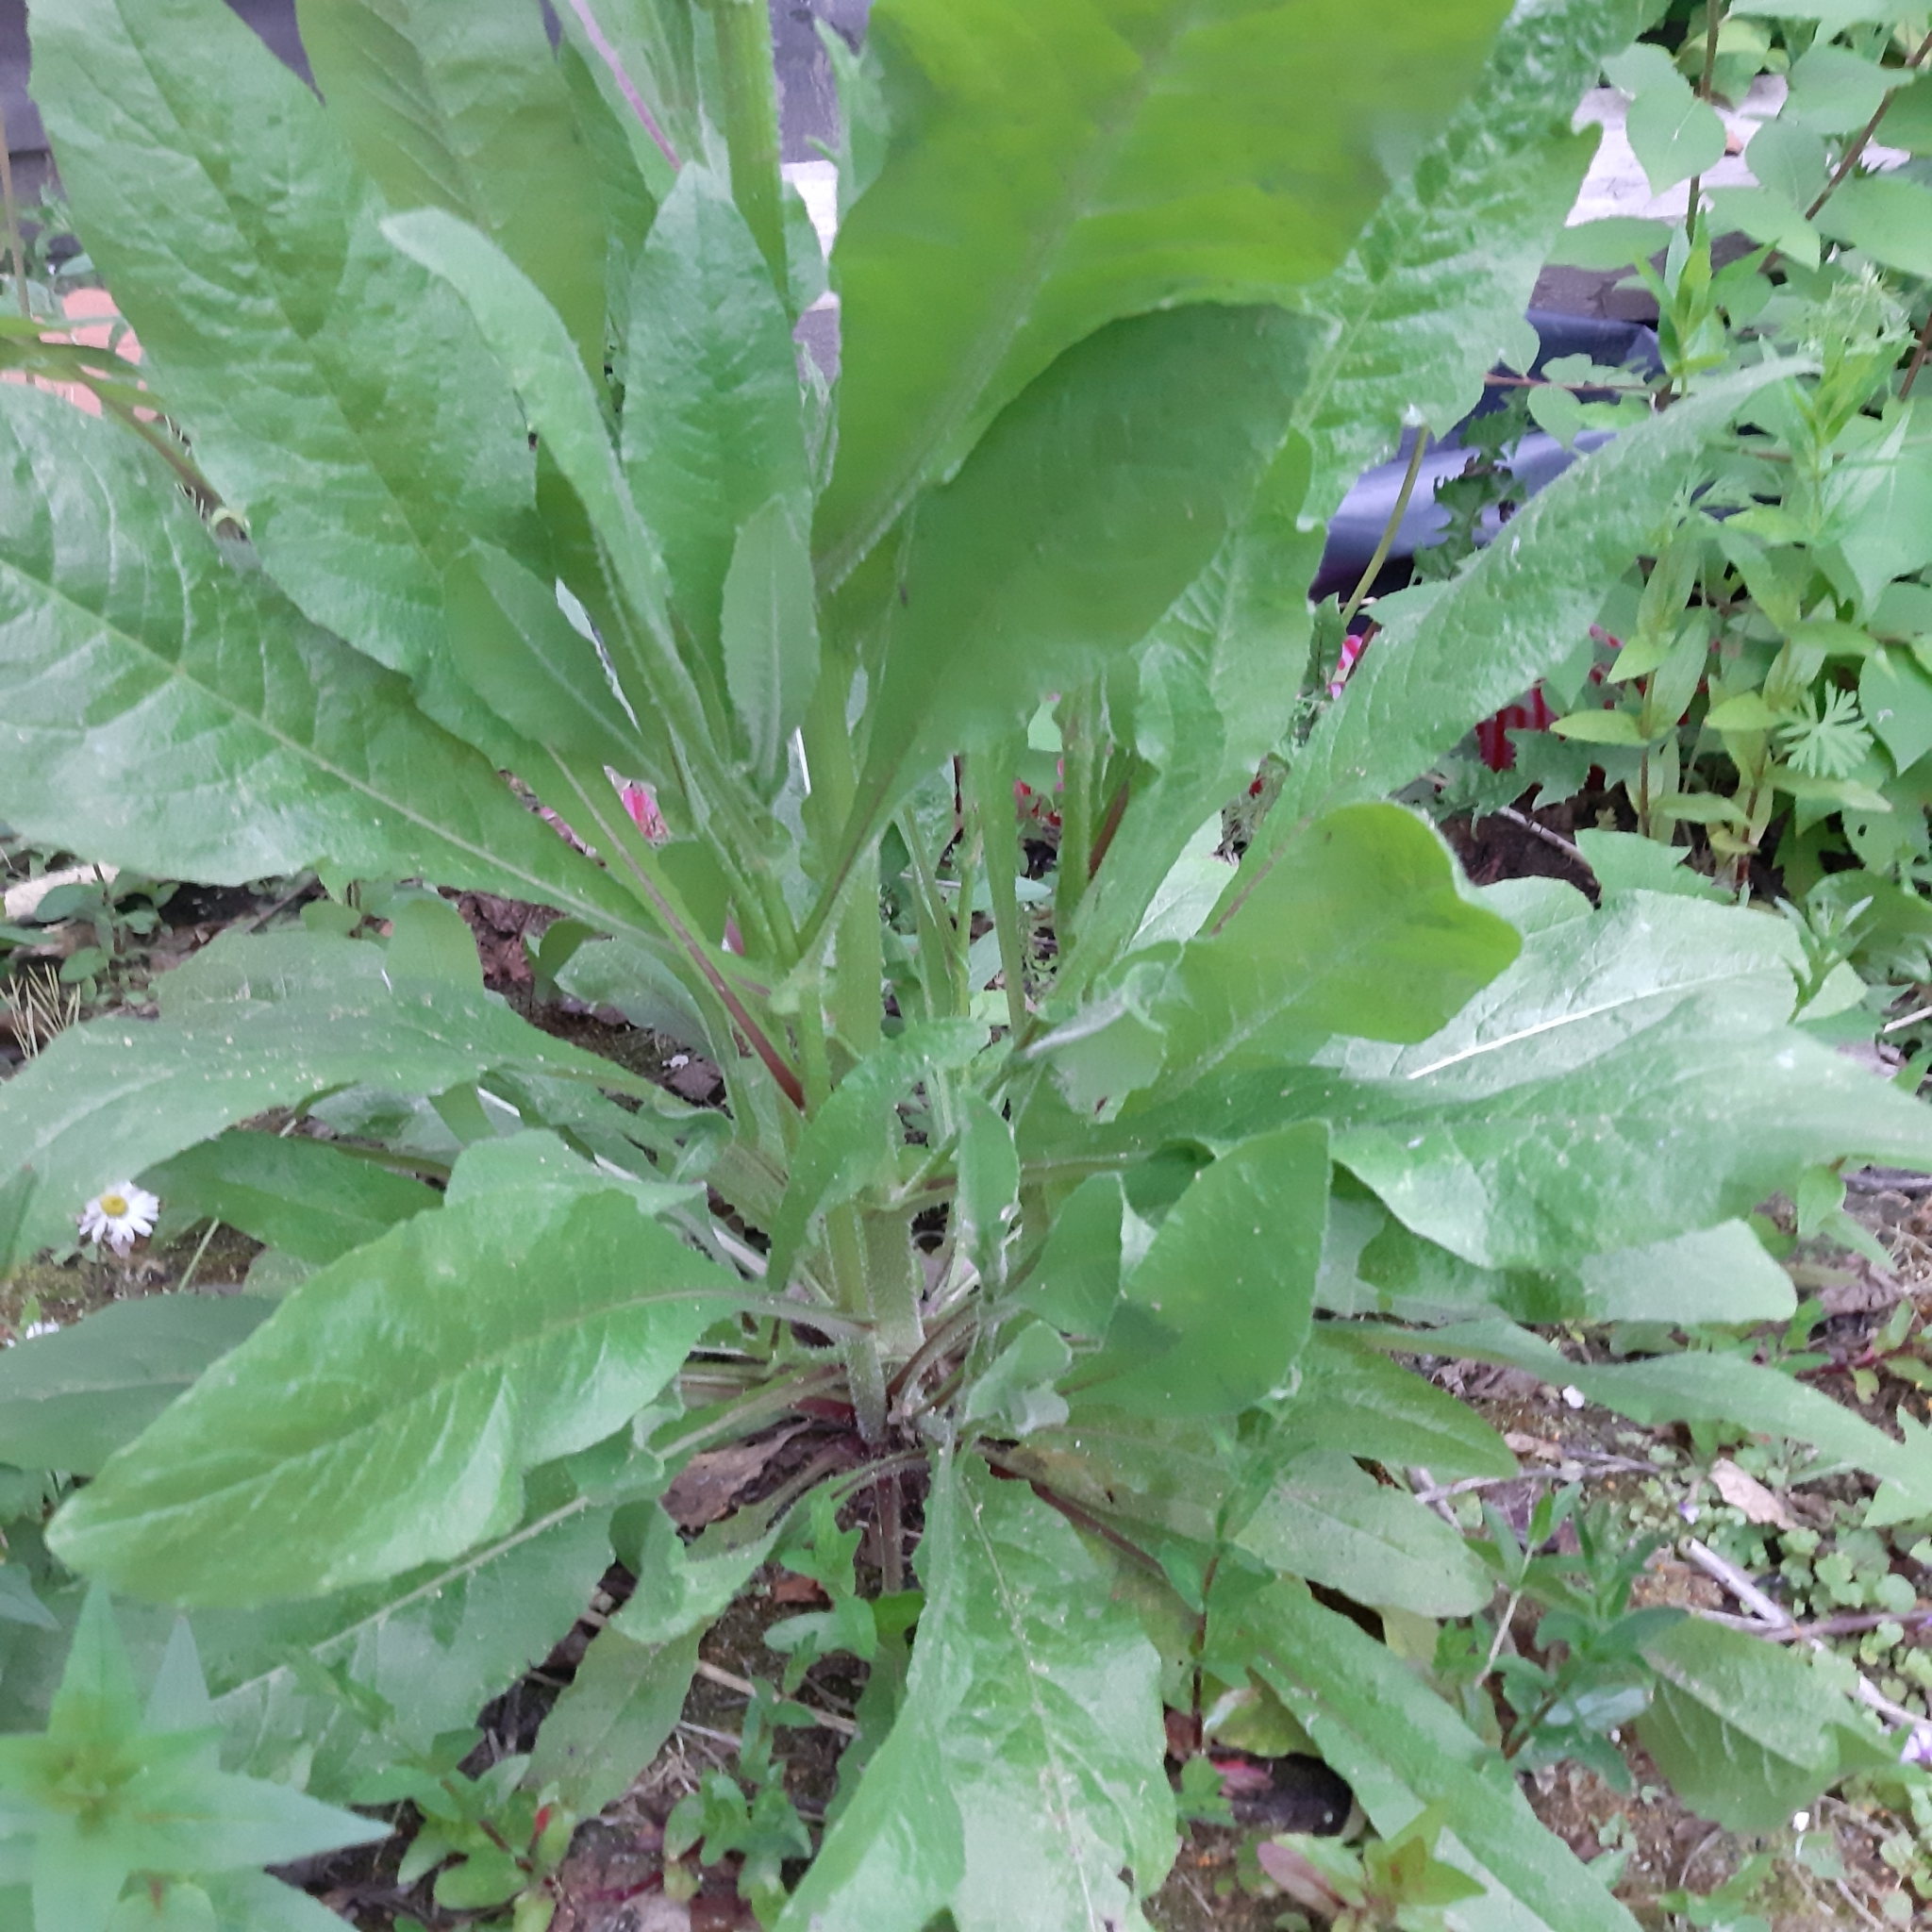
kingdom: Plantae
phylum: Tracheophyta
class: Magnoliopsida
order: Asterales
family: Asteraceae
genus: Lactuca
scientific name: Lactuca virosa
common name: Great lettuce
